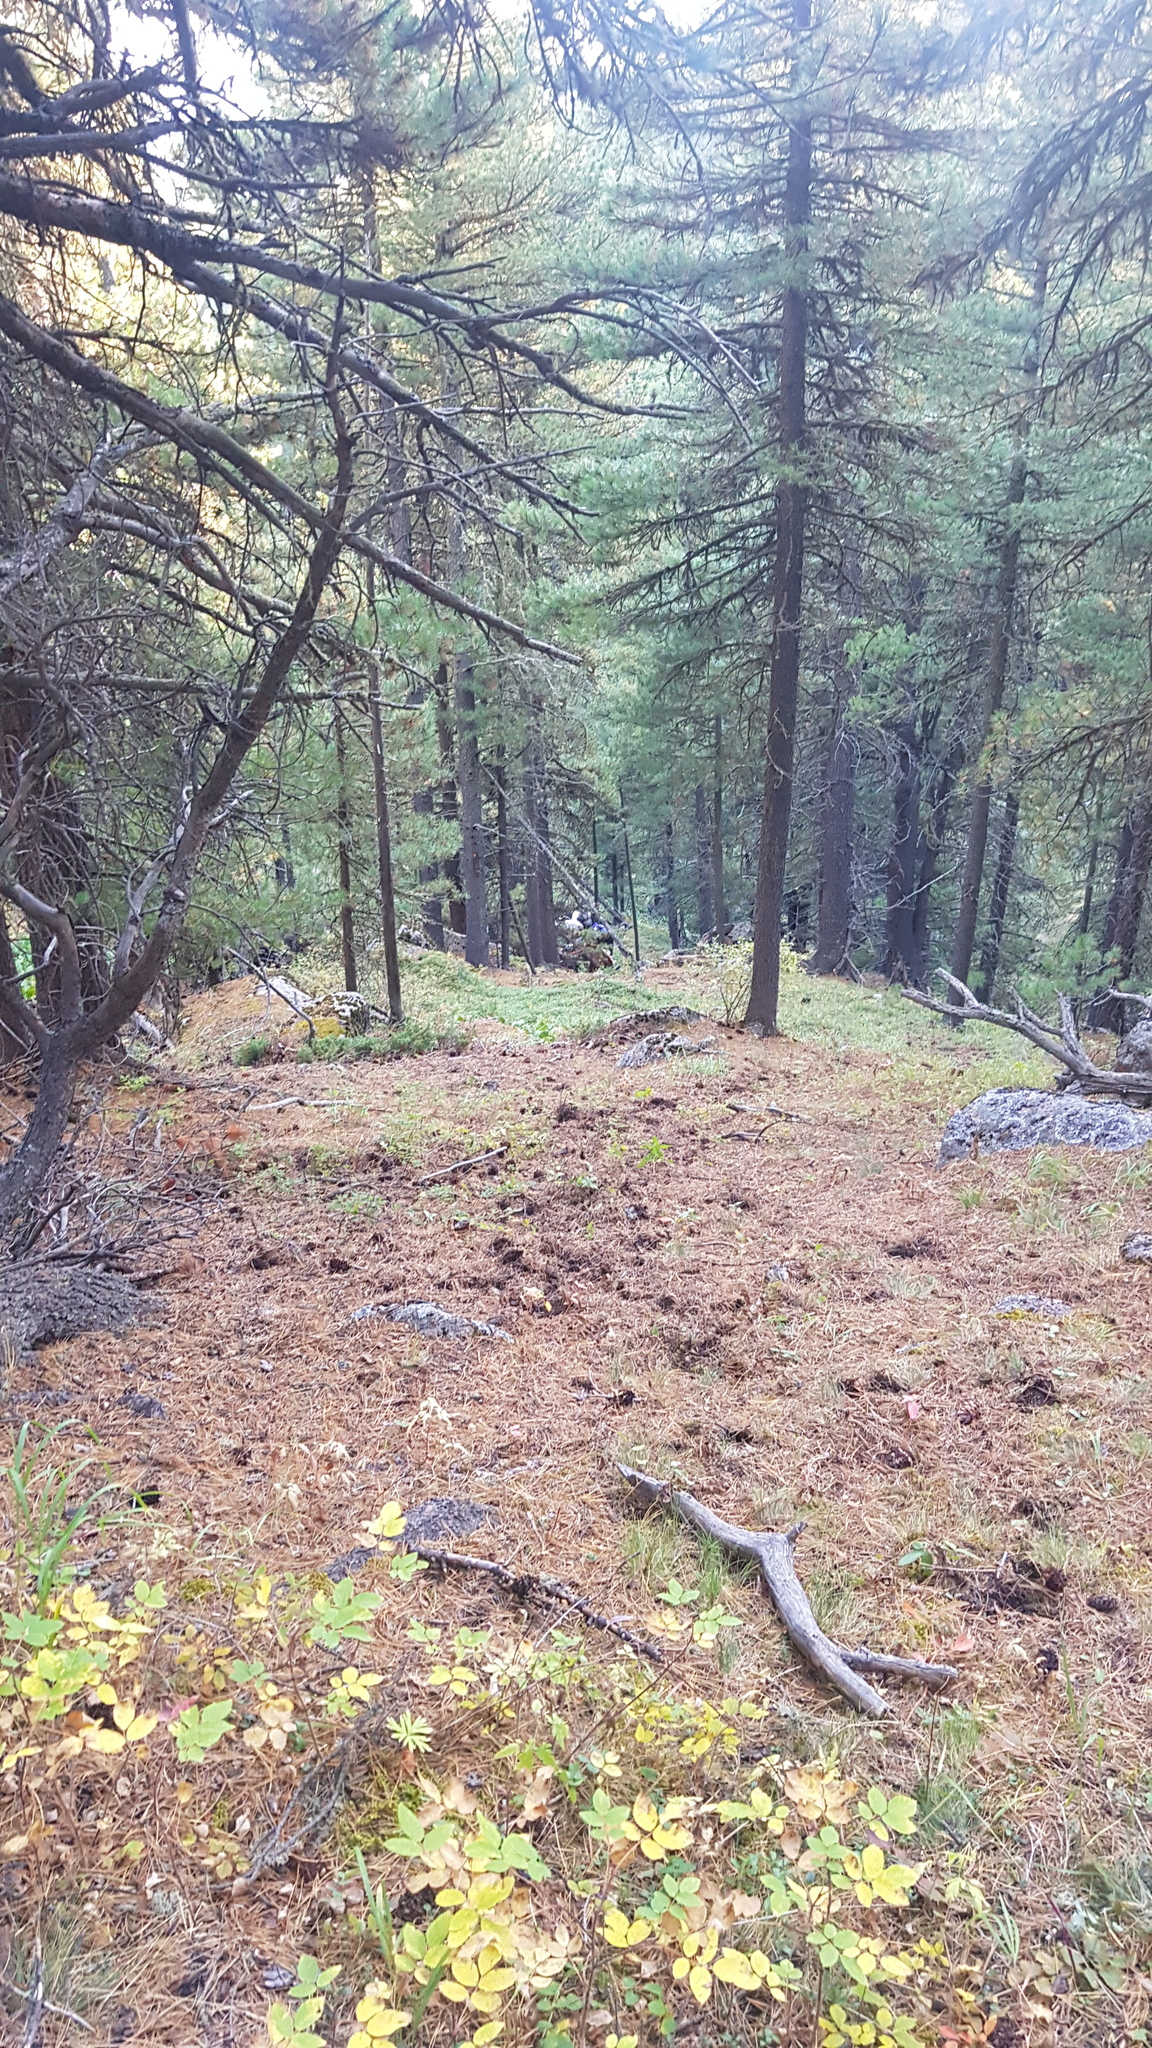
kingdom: Plantae
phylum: Tracheophyta
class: Pinopsida
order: Pinales
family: Pinaceae
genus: Larix
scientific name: Larix sibirica
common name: Siberian larch
